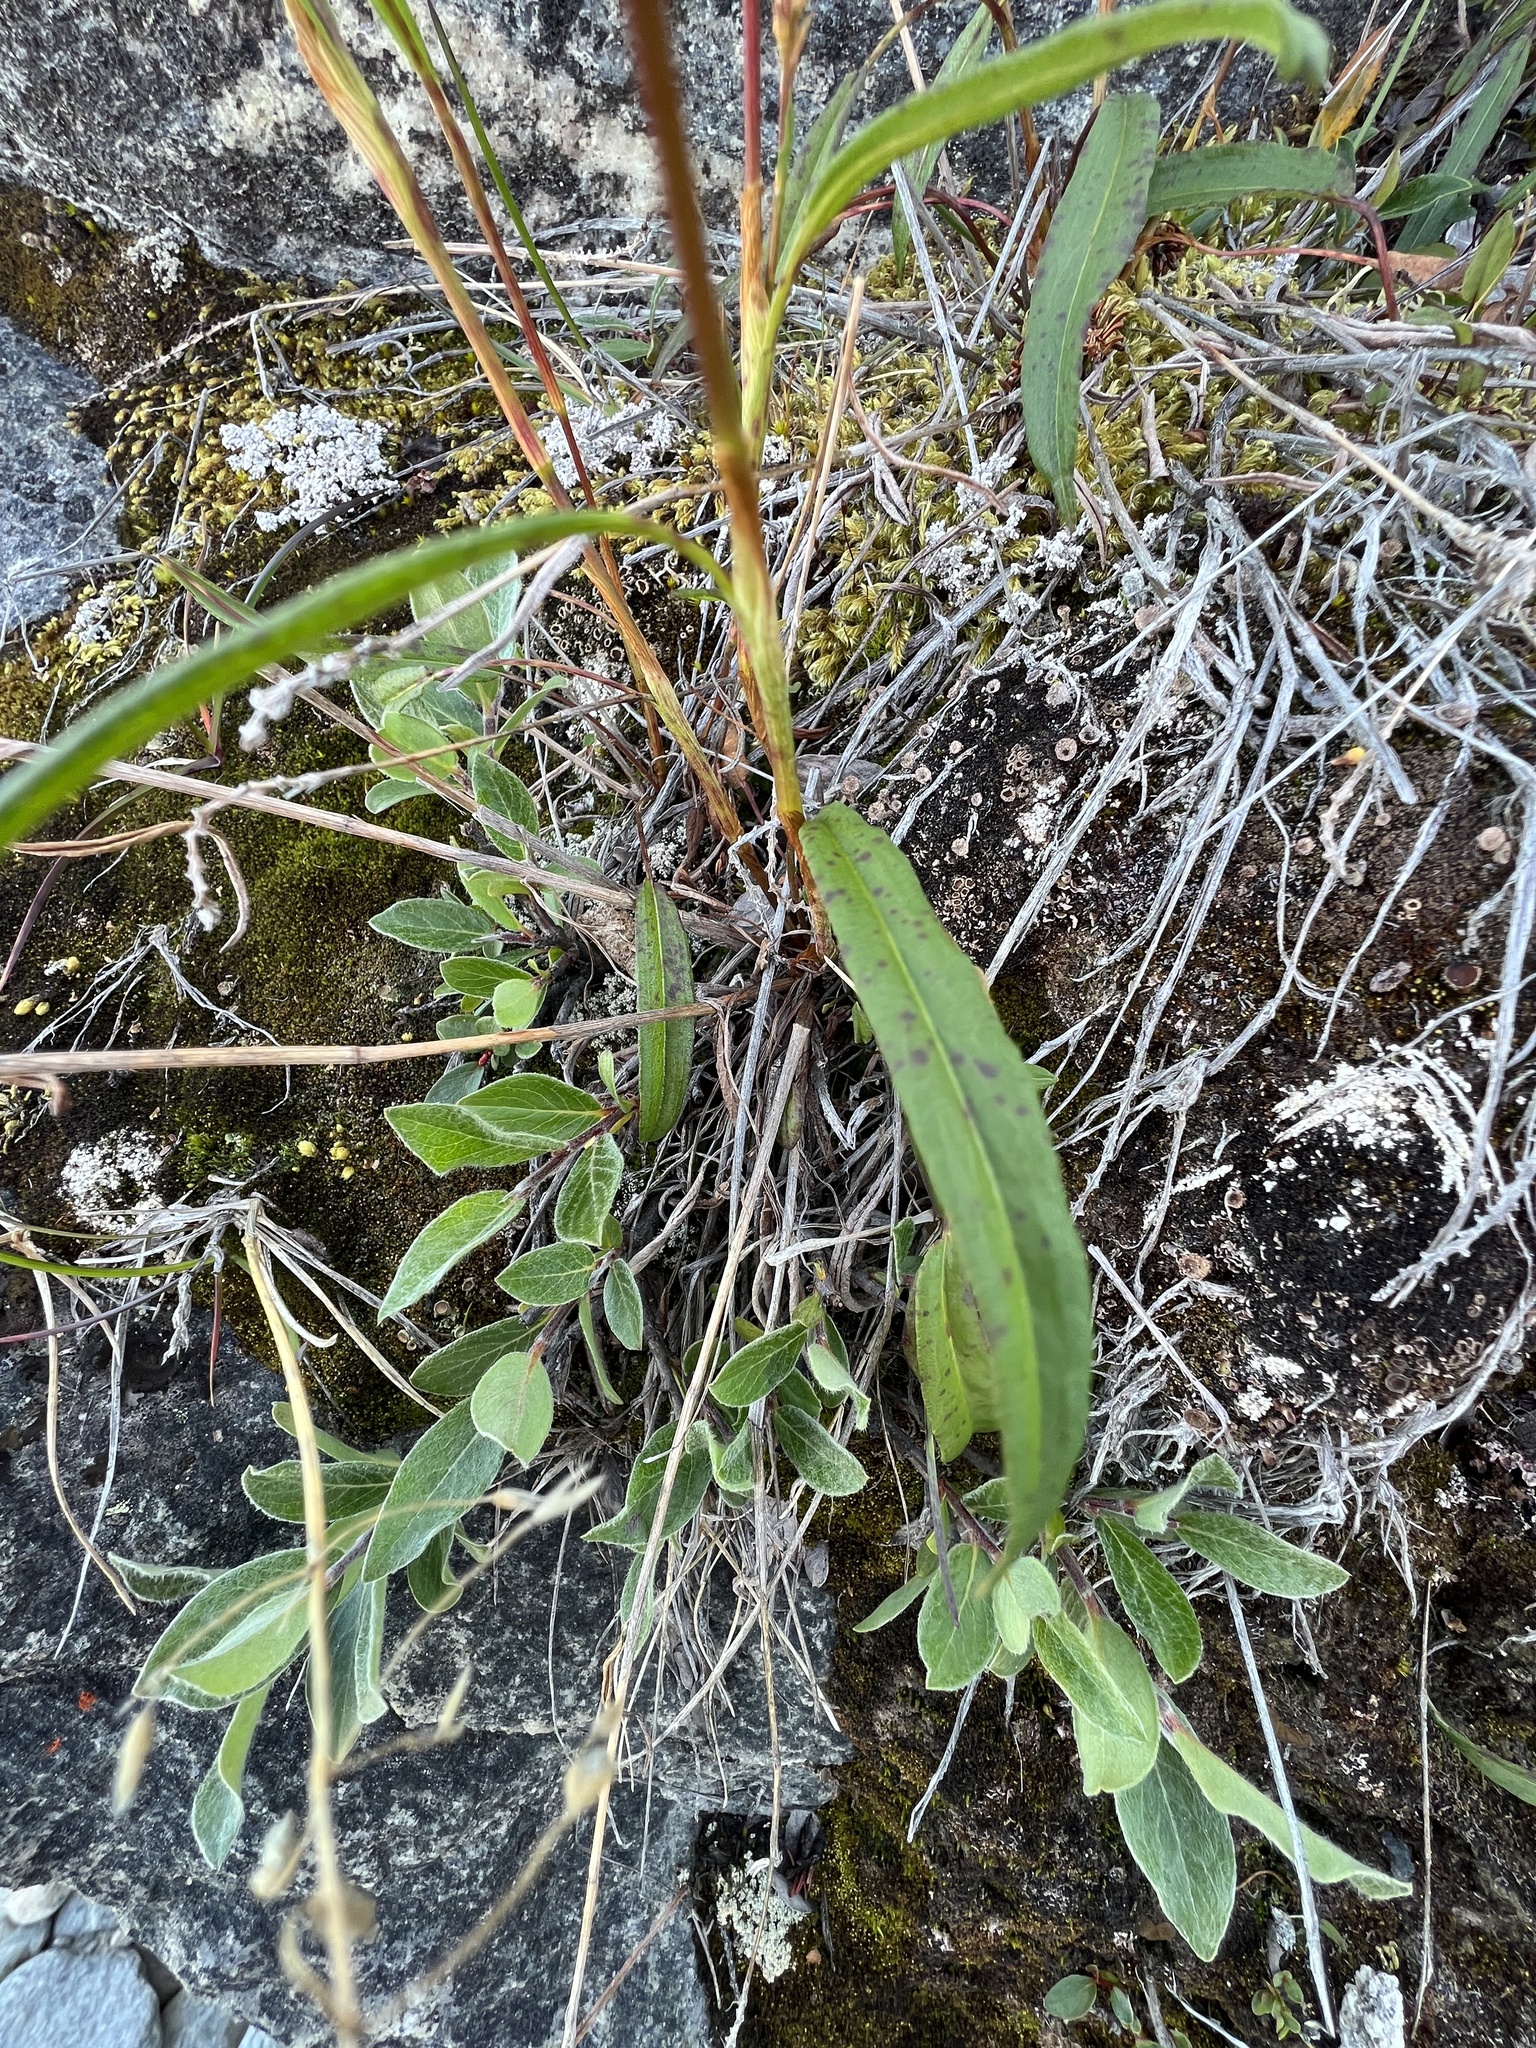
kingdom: Plantae
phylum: Tracheophyta
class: Magnoliopsida
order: Caryophyllales
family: Polygonaceae
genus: Bistorta
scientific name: Bistorta vivipara
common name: Alpine bistort
